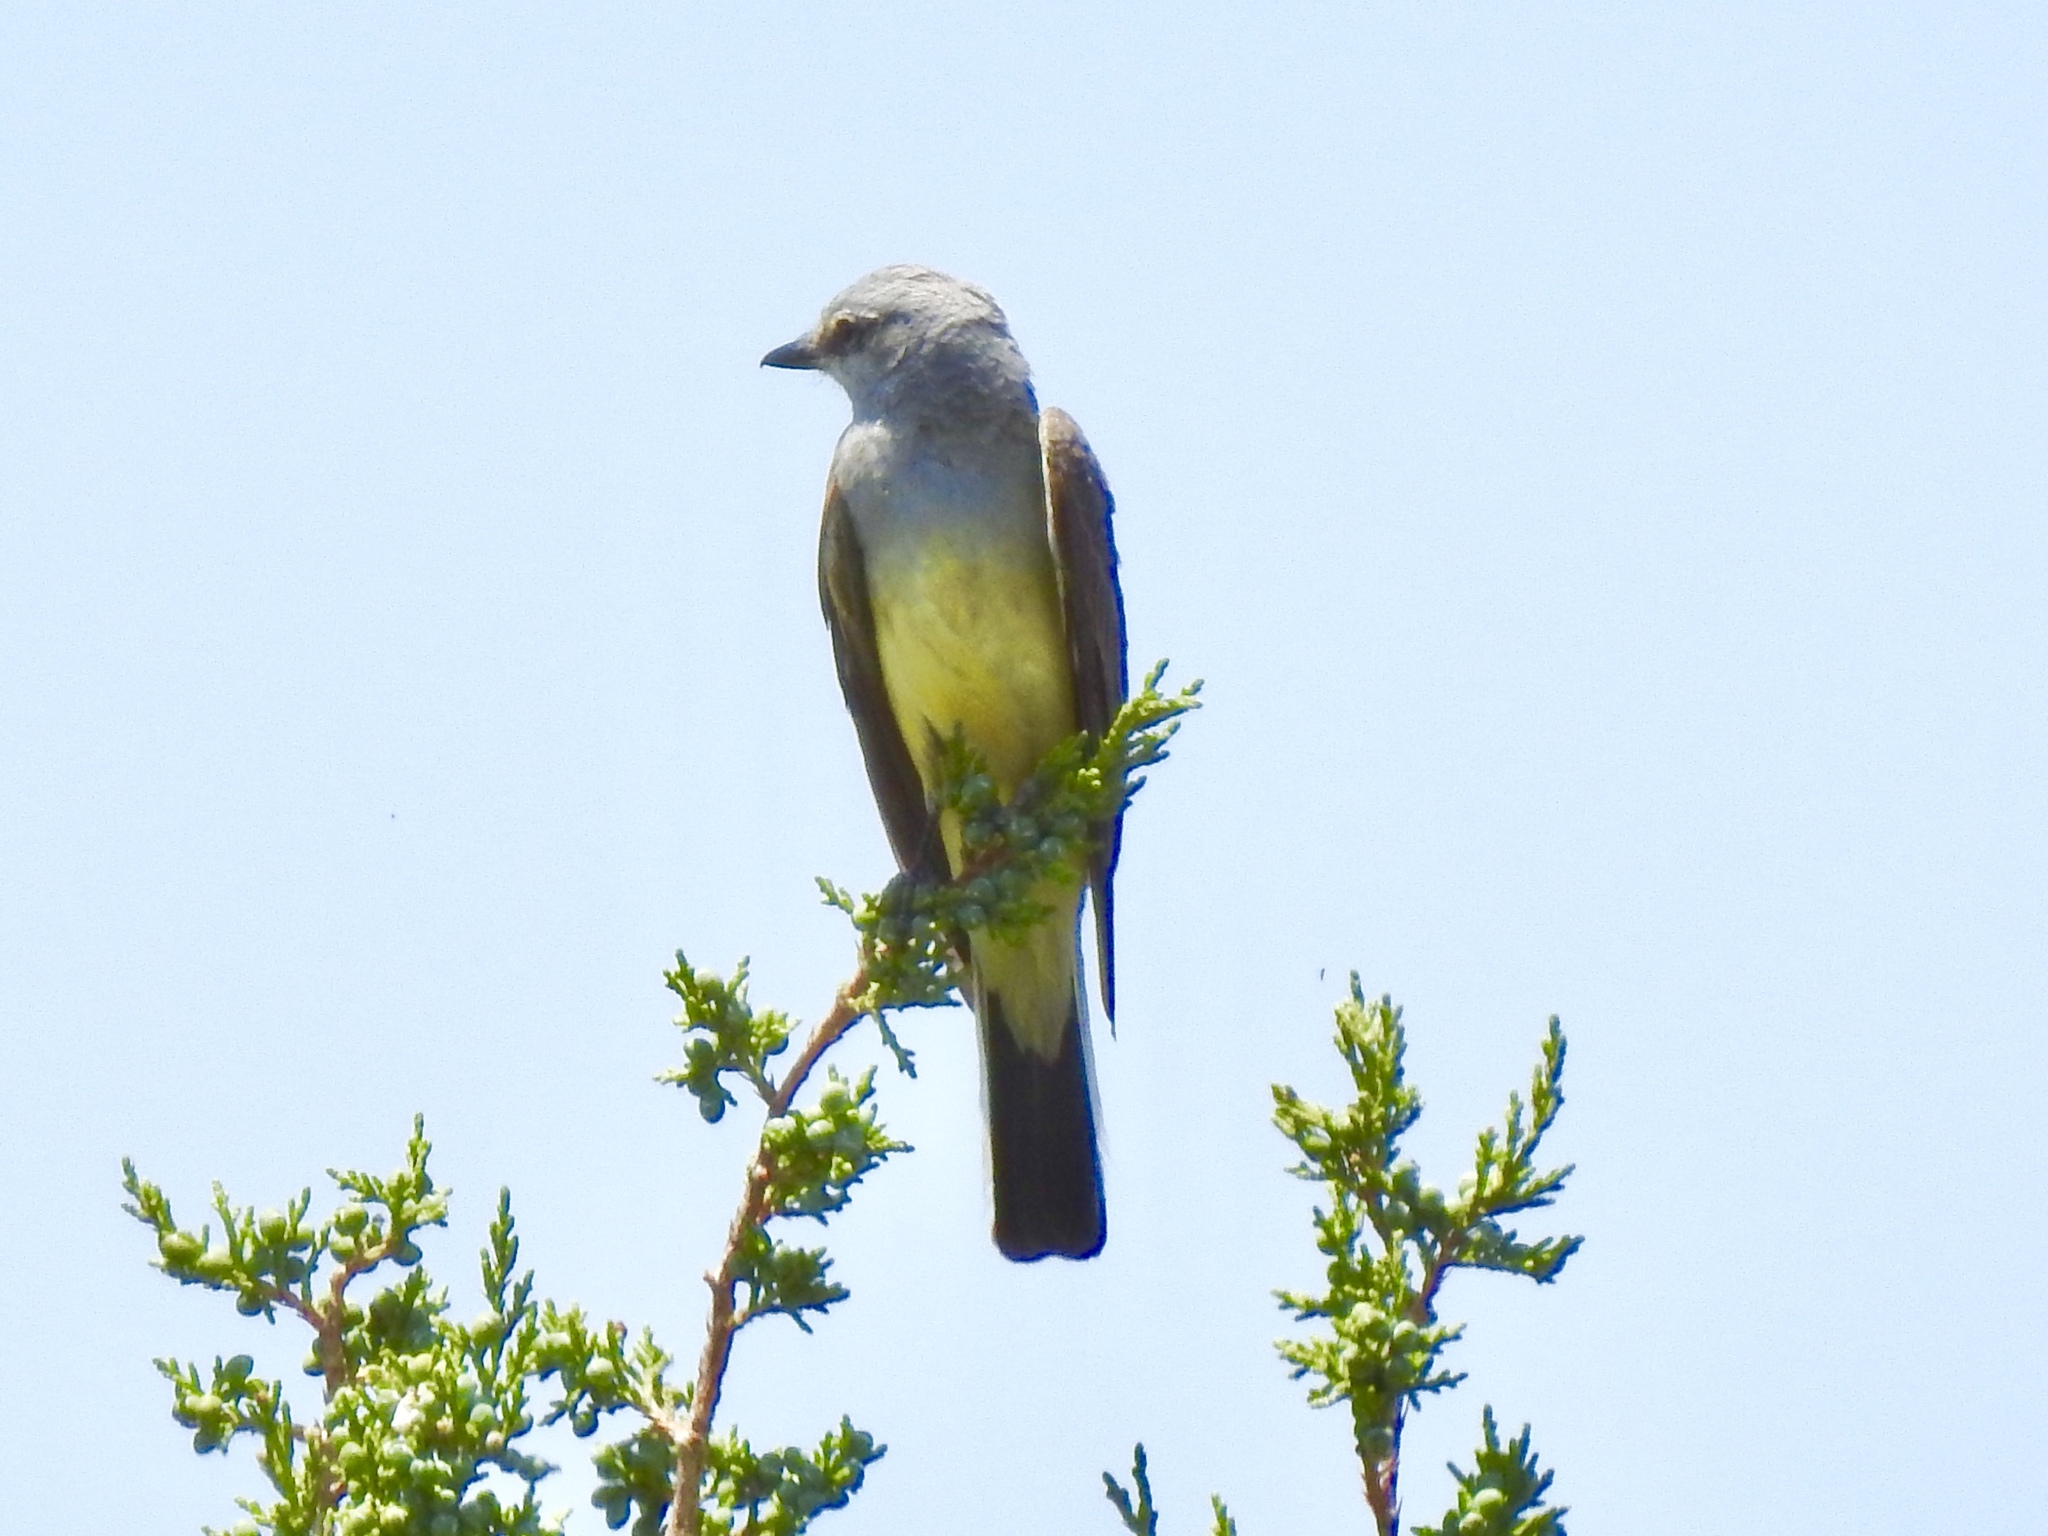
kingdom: Animalia
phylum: Chordata
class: Aves
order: Passeriformes
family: Tyrannidae
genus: Tyrannus
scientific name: Tyrannus verticalis
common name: Western kingbird
